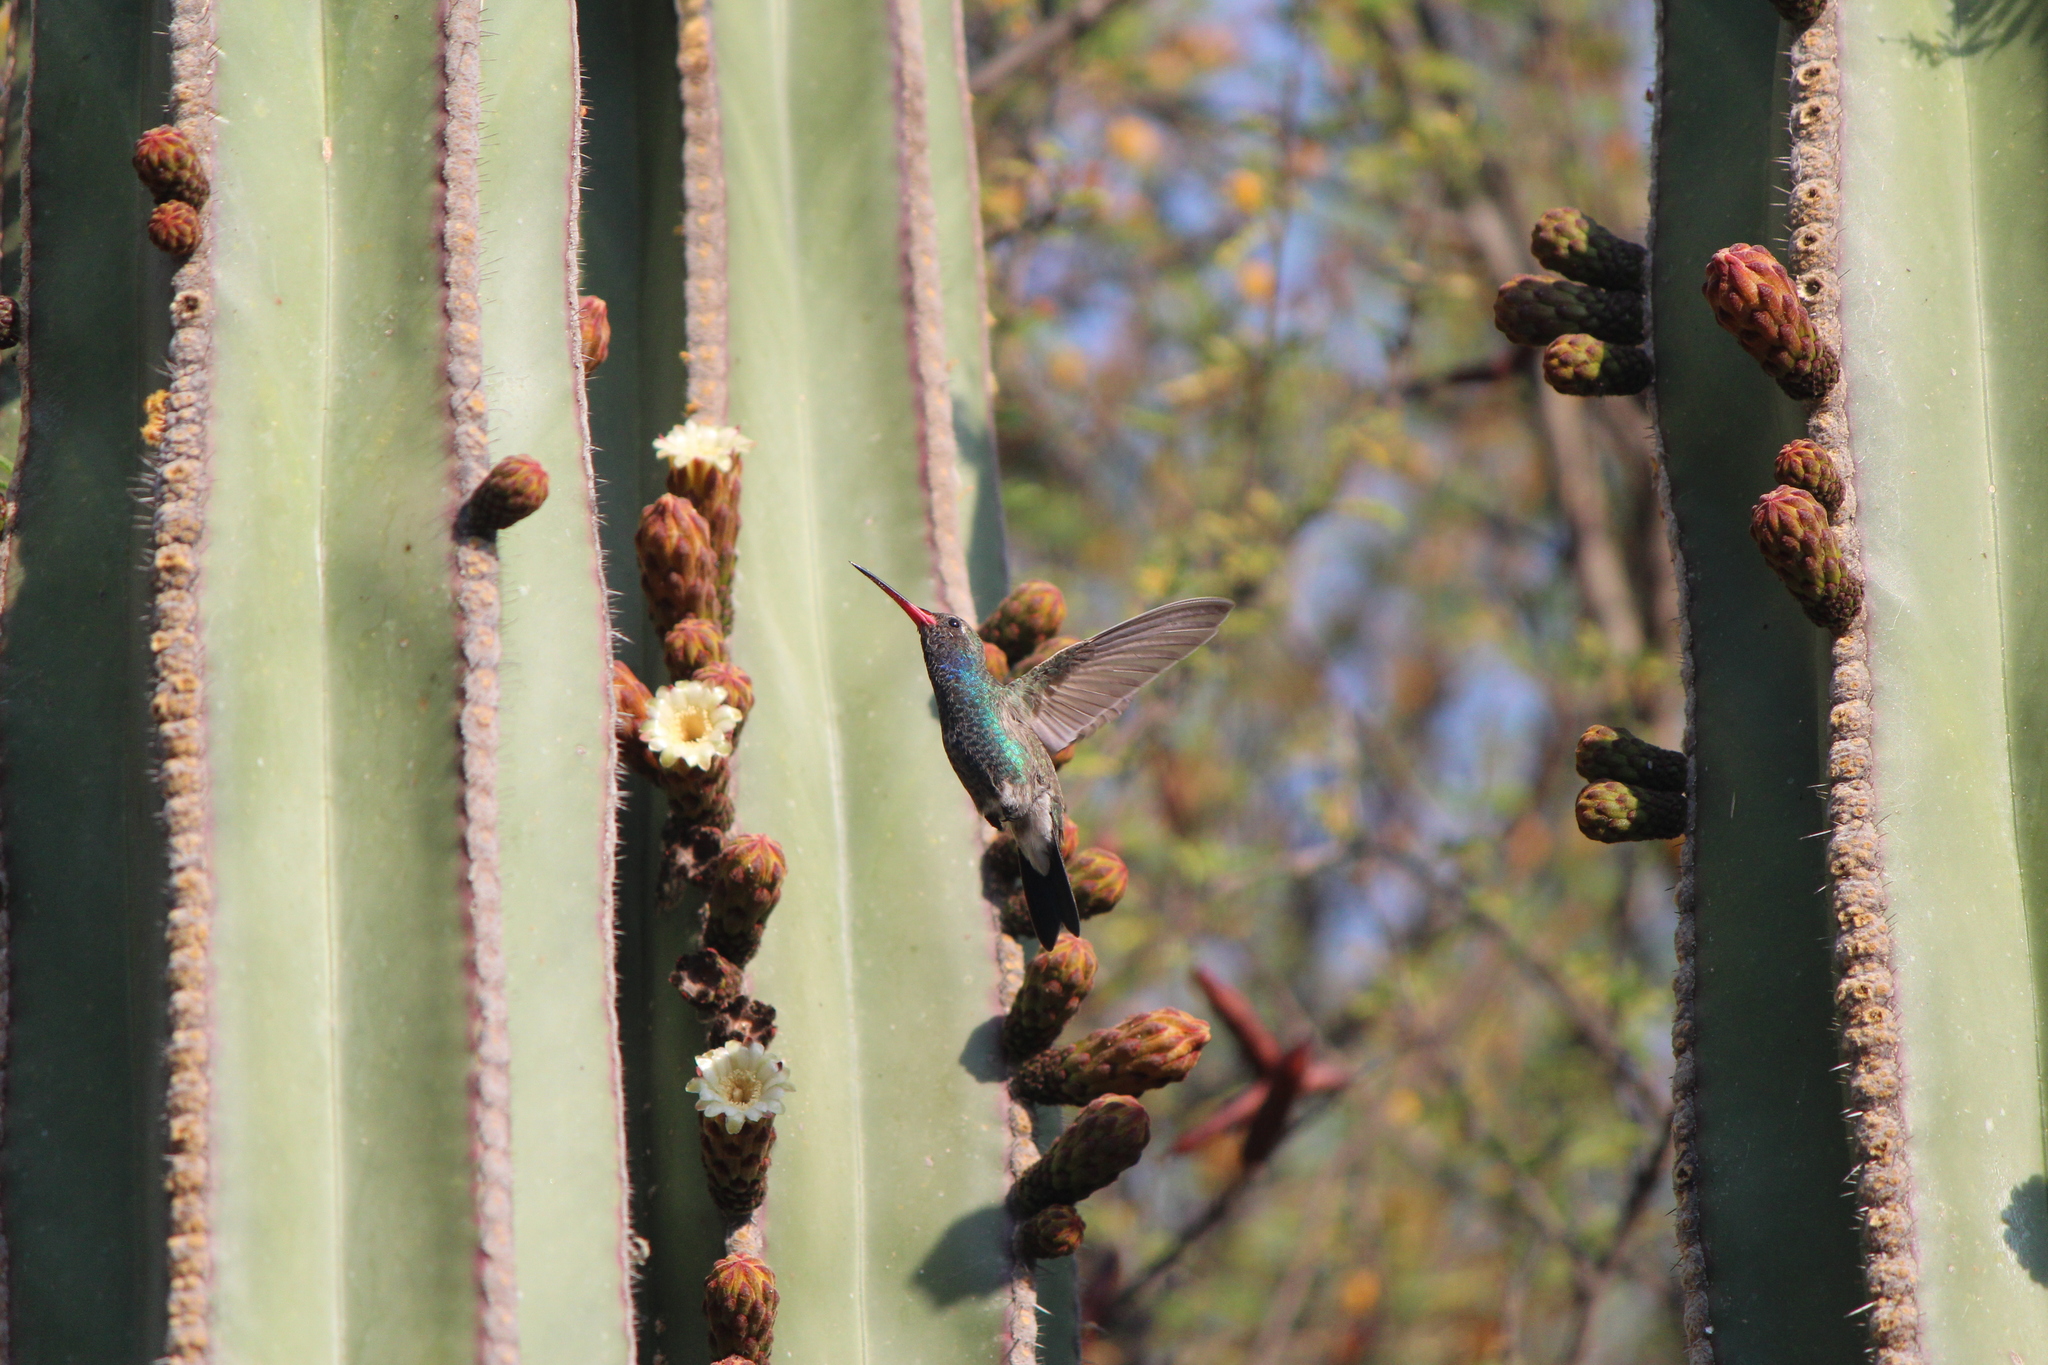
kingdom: Animalia
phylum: Chordata
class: Aves
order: Apodiformes
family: Trochilidae
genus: Cynanthus
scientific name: Cynanthus latirostris
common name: Broad-billed hummingbird
